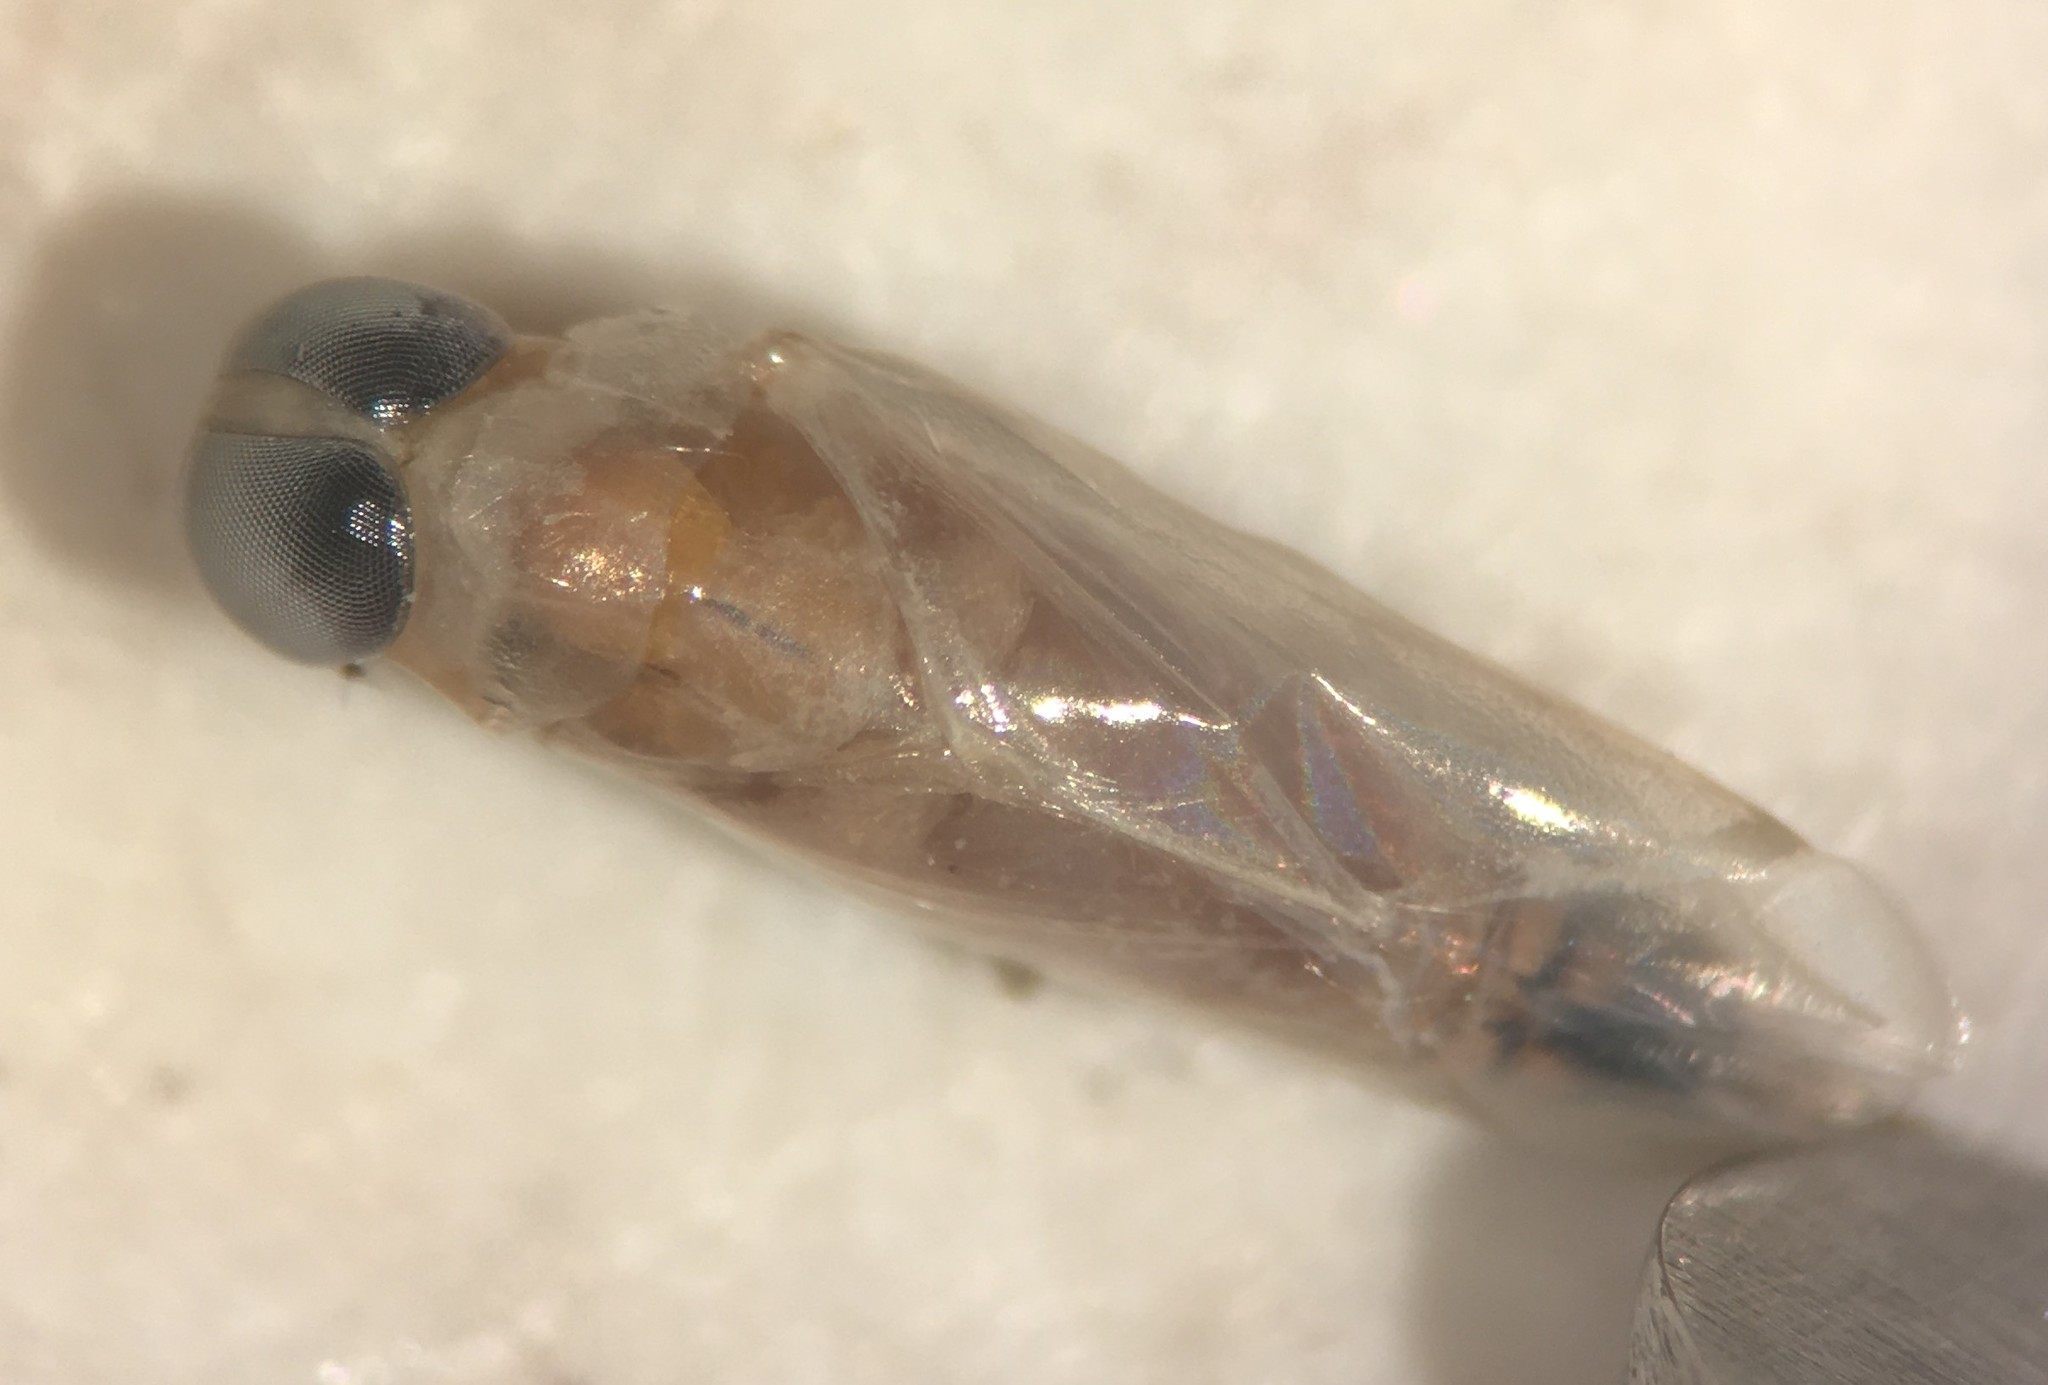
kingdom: Animalia
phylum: Arthropoda
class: Insecta
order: Hemiptera
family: Notonectidae
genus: Buenoa
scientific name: Buenoa scimitra
